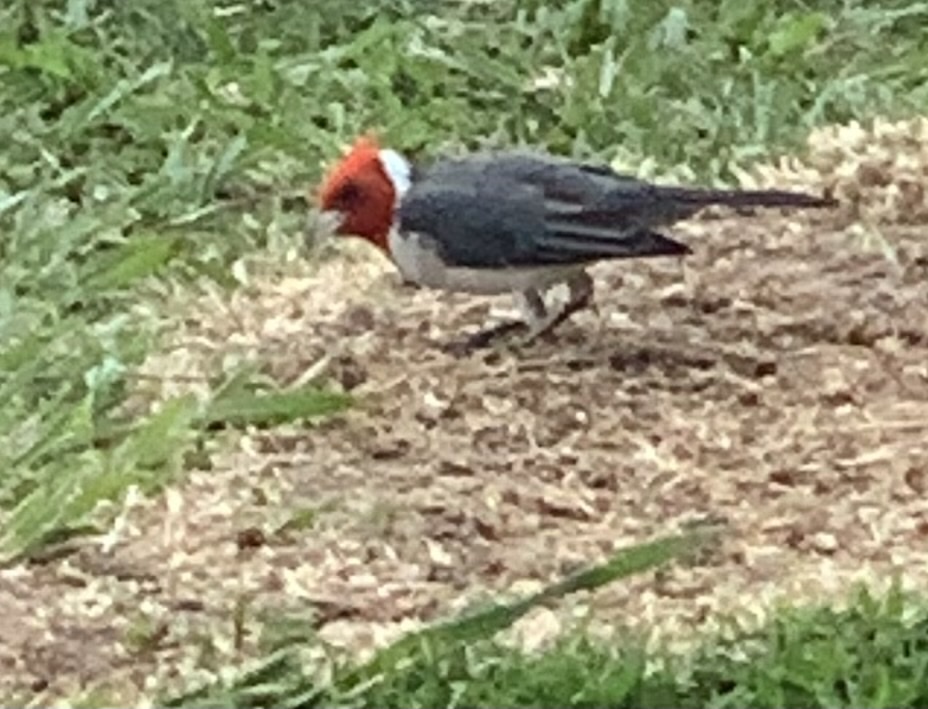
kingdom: Animalia
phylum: Chordata
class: Aves
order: Passeriformes
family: Thraupidae
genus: Paroaria
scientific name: Paroaria coronata
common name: Red-crested cardinal
